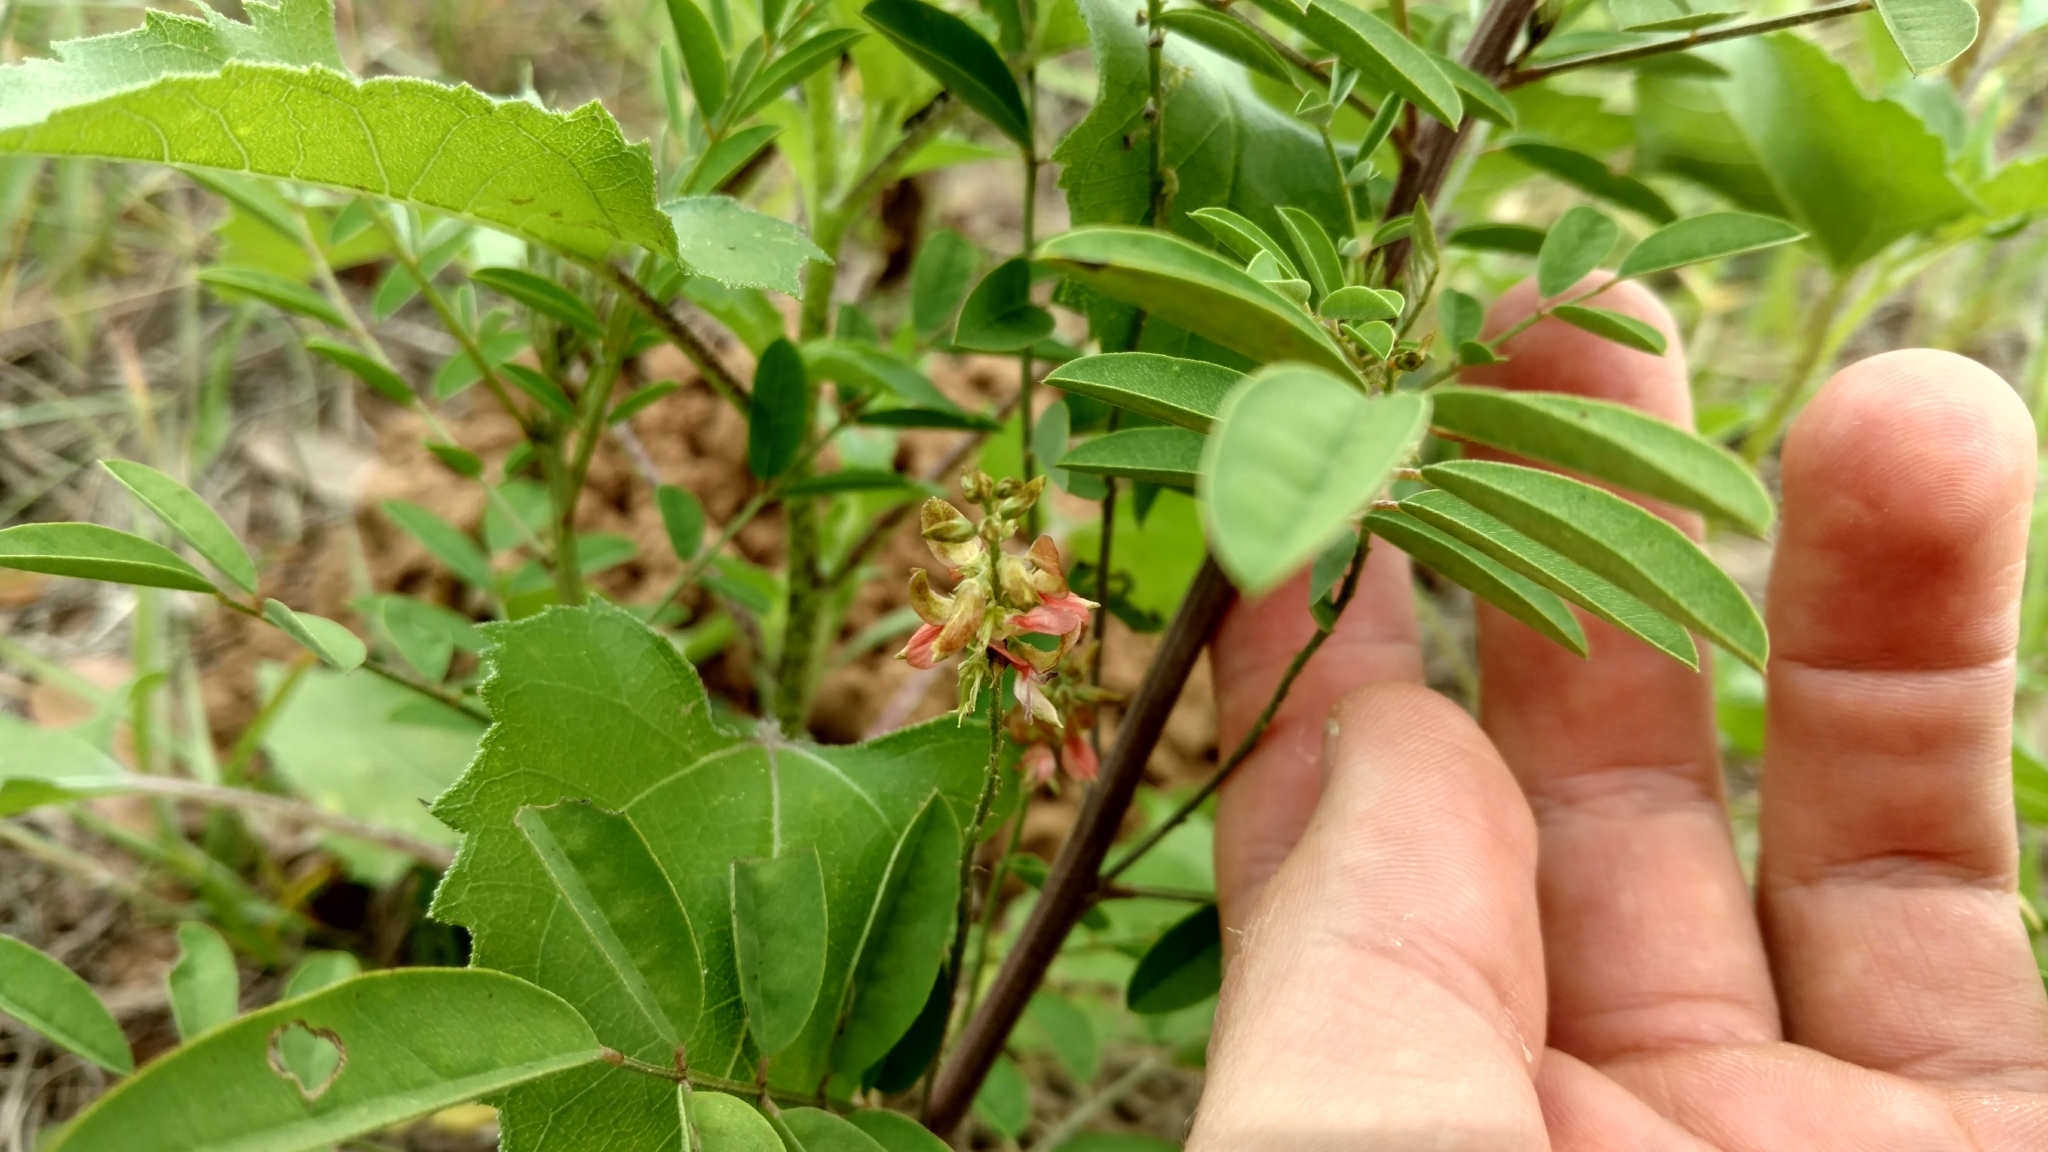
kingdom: Plantae
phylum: Tracheophyta
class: Magnoliopsida
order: Fabales
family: Fabaceae
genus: Indigofera
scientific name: Indigofera suffruticosa
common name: Anil de pasto
